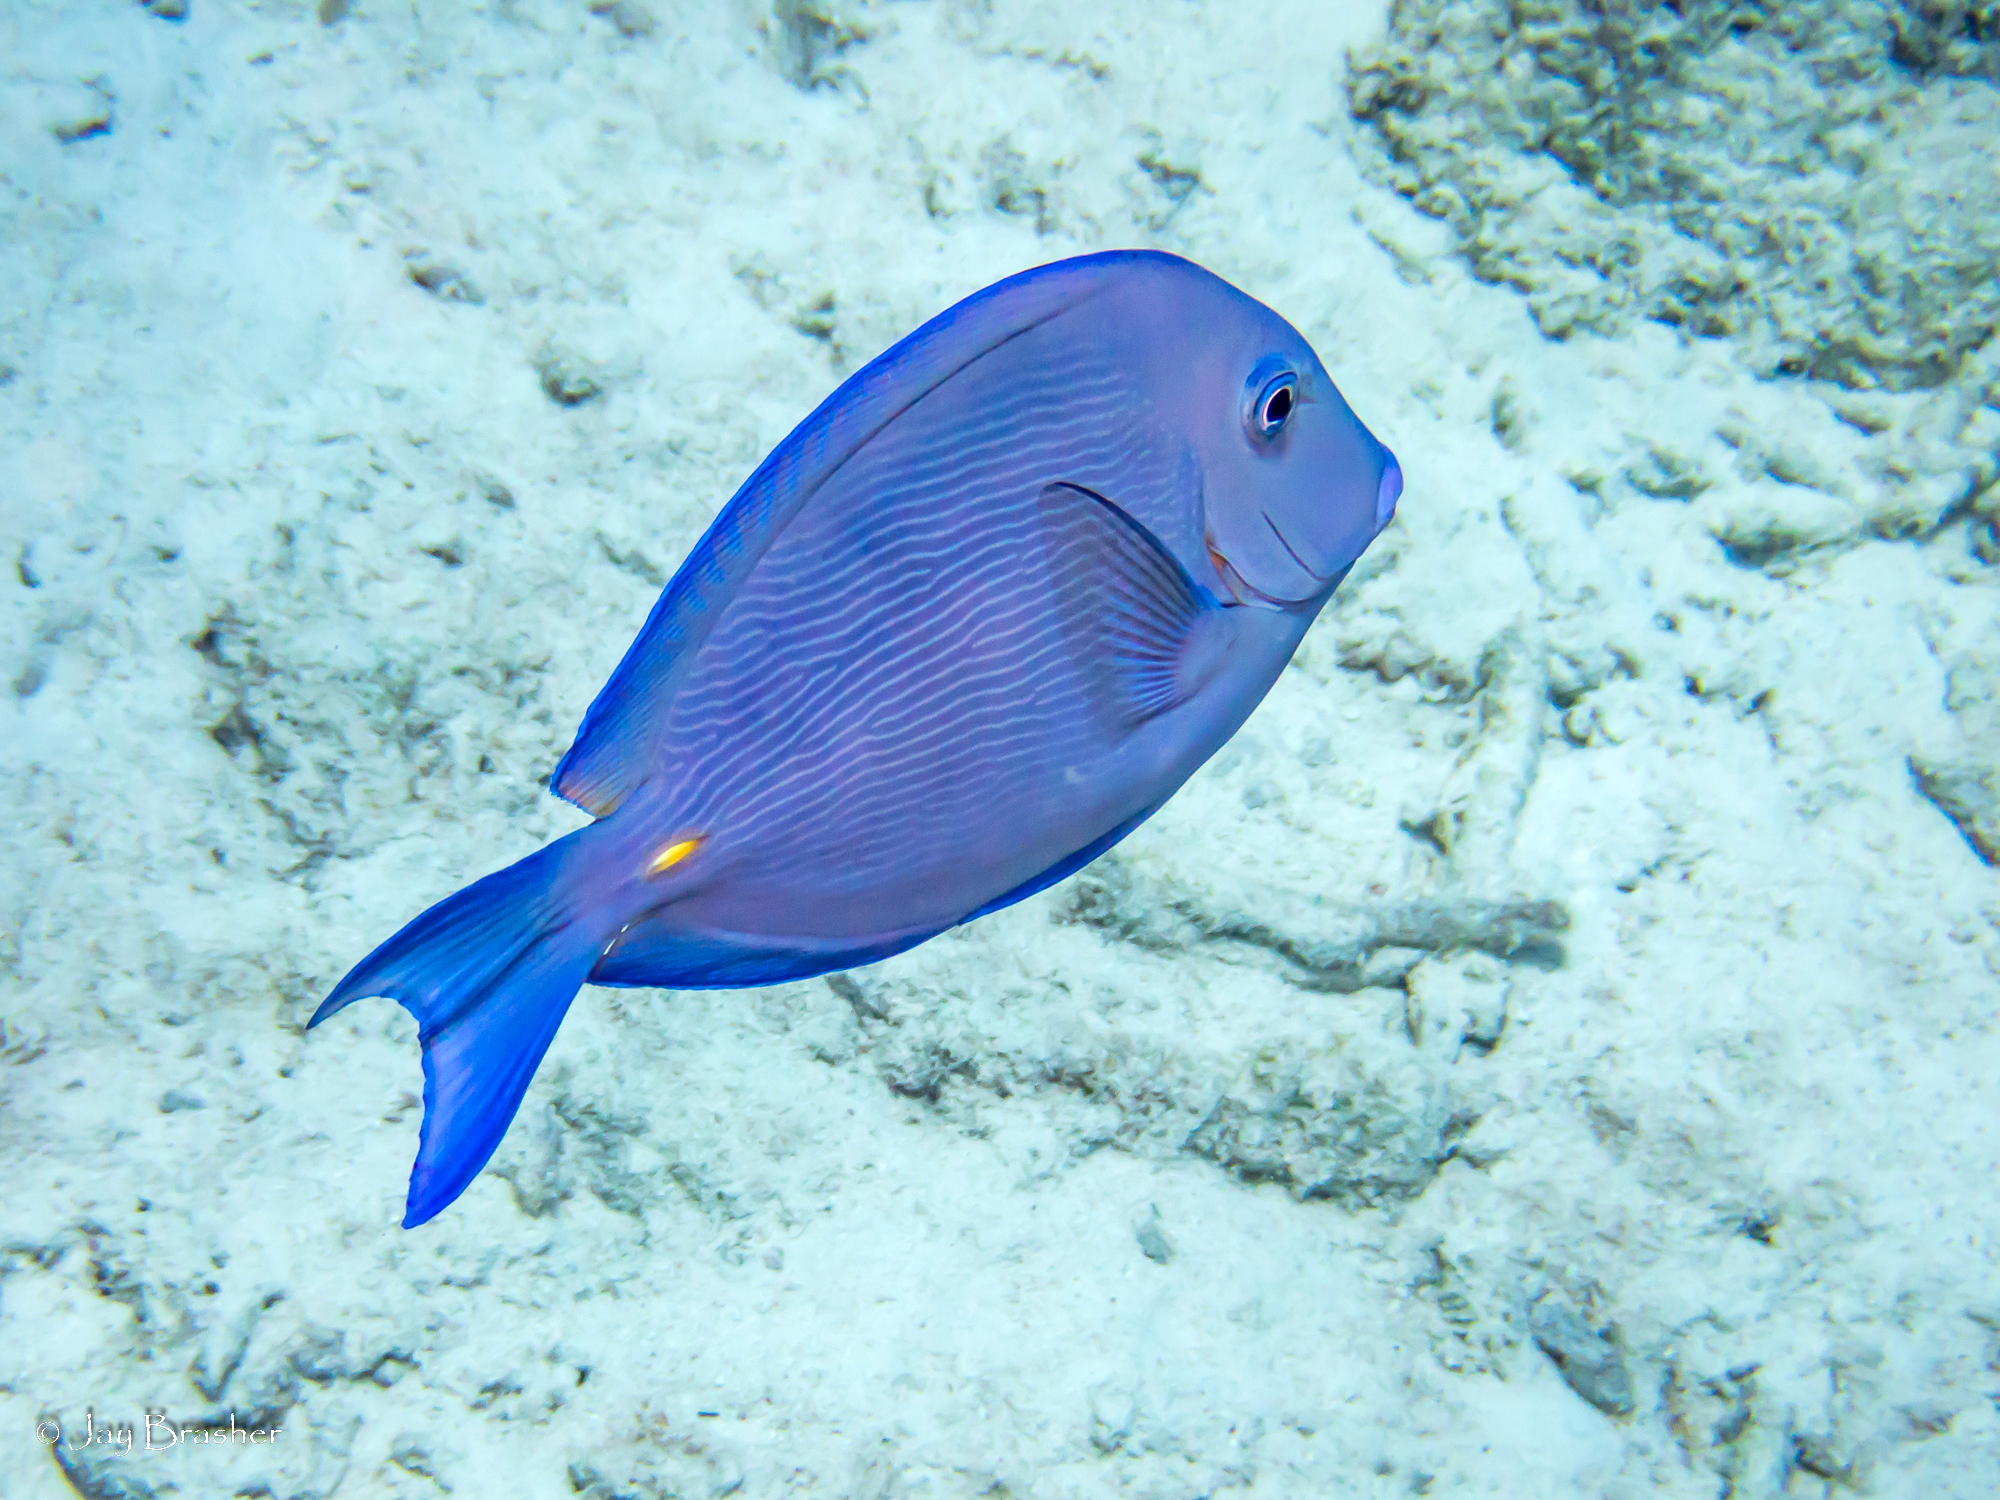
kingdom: Animalia
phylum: Chordata
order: Perciformes
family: Acanthuridae
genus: Acanthurus
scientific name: Acanthurus coeruleus
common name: Blue tang
